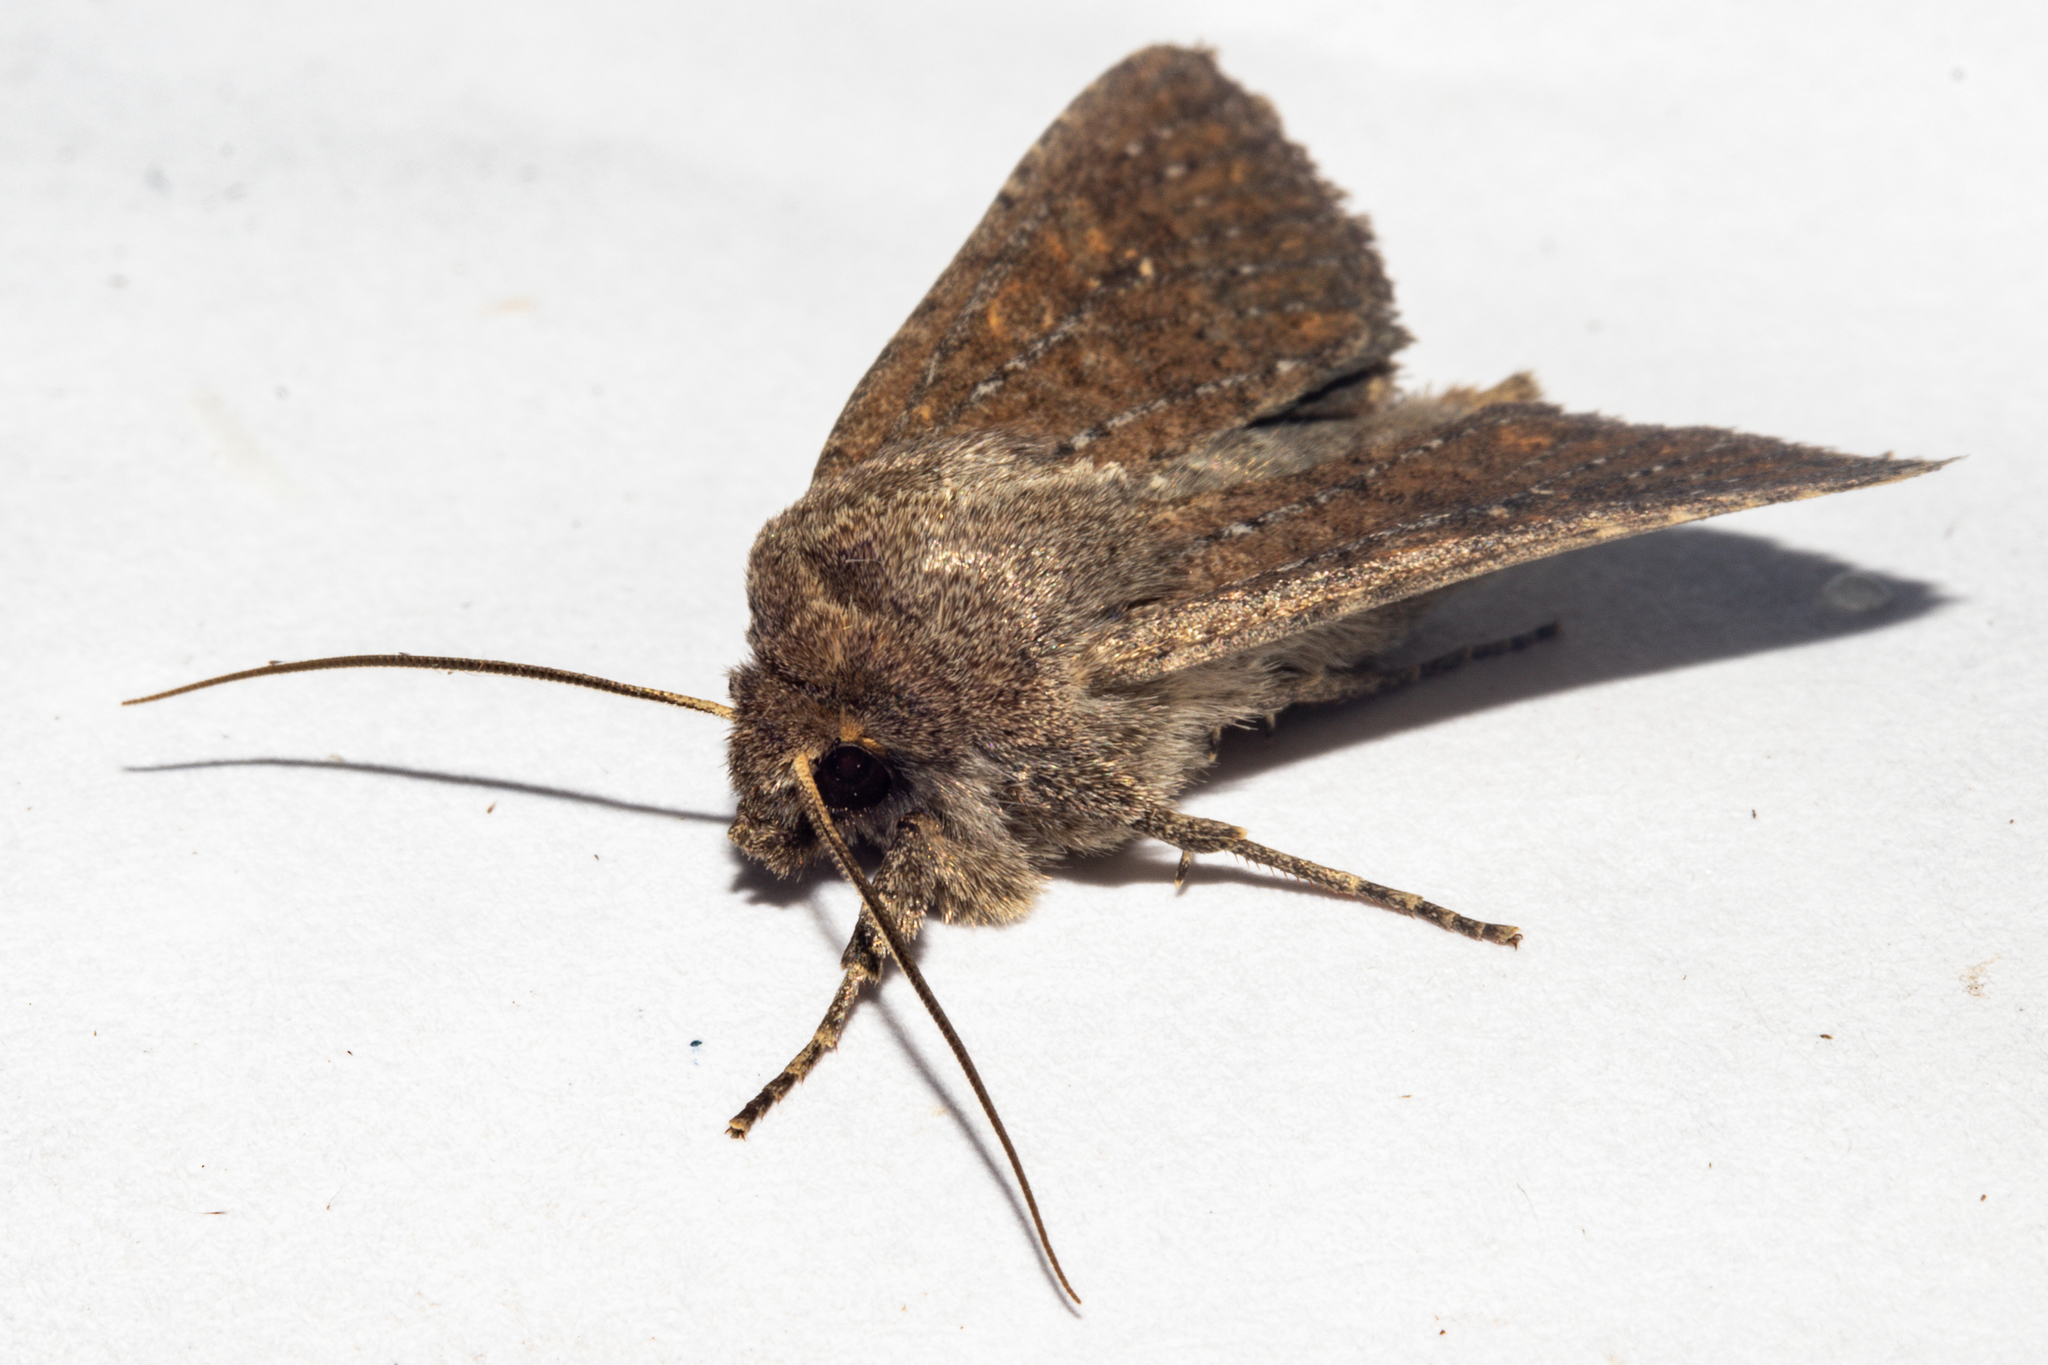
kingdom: Animalia
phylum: Arthropoda
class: Insecta
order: Lepidoptera
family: Noctuidae
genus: Physetica
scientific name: Physetica
